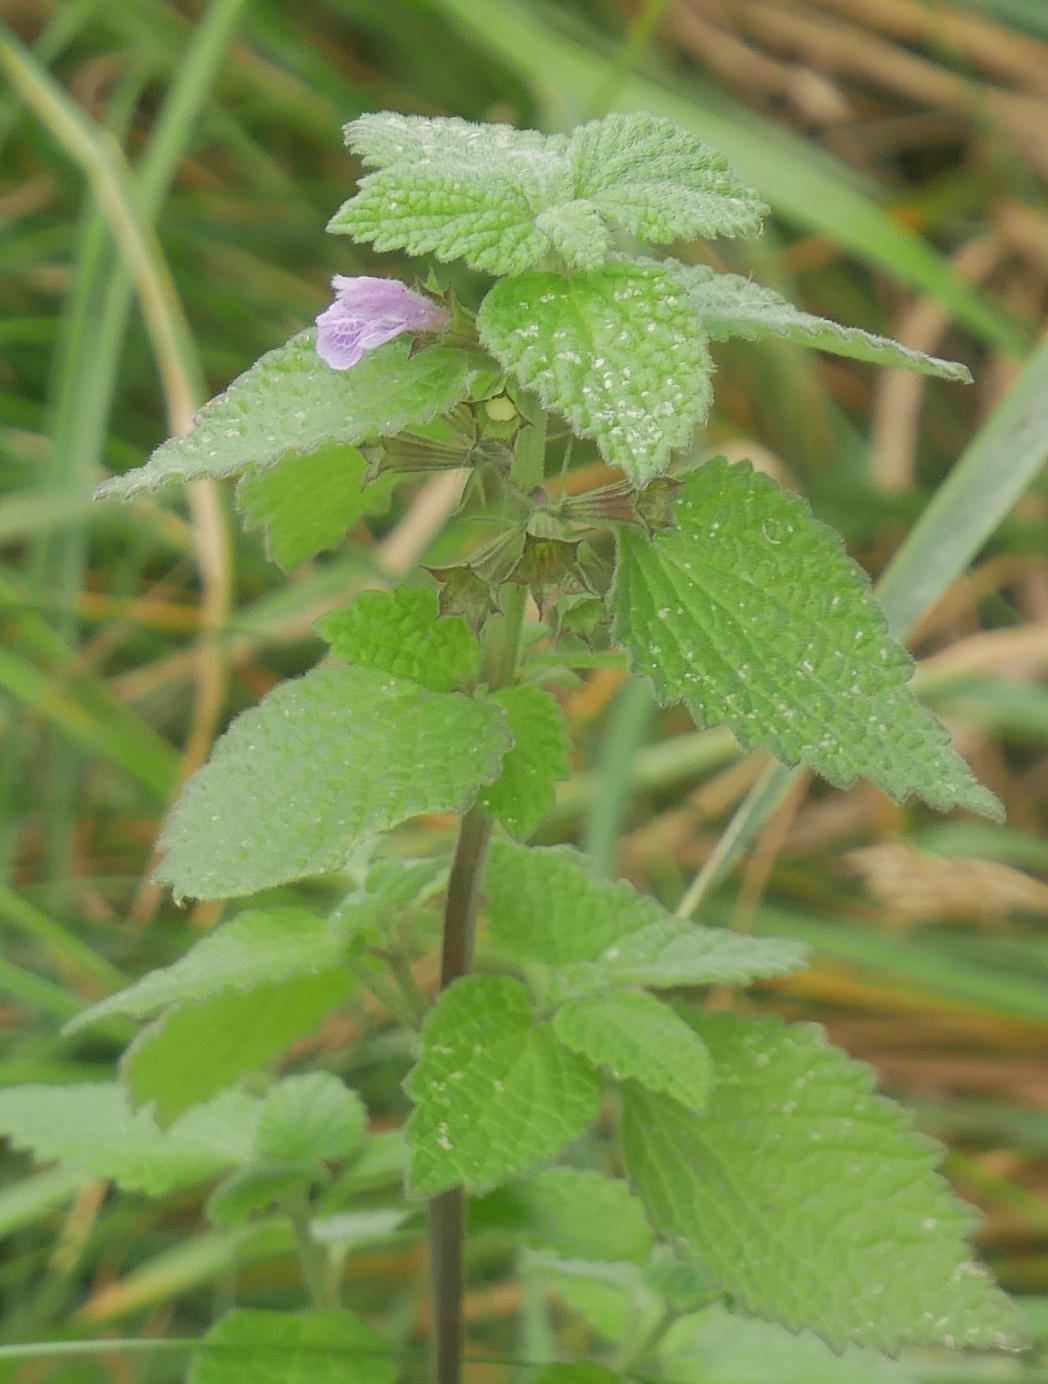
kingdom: Plantae
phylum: Tracheophyta
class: Magnoliopsida
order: Lamiales
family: Lamiaceae
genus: Ballota
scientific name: Ballota nigra
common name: Black horehound
